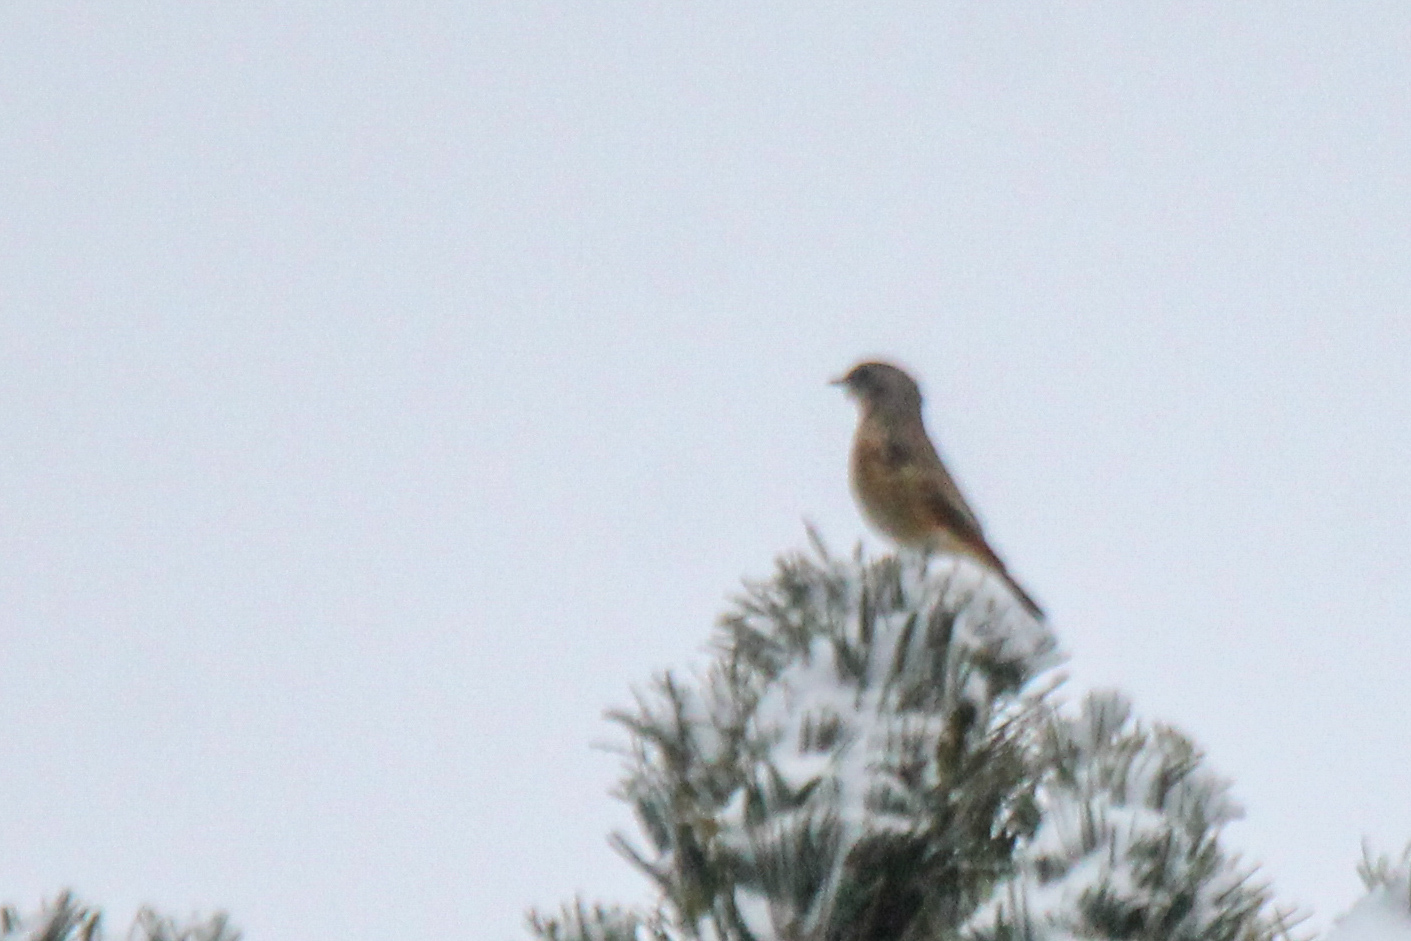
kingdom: Animalia
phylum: Chordata
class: Aves
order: Passeriformes
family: Muscicapidae
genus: Phoenicurus
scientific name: Phoenicurus erythronotus
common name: Eversmann's redstart
